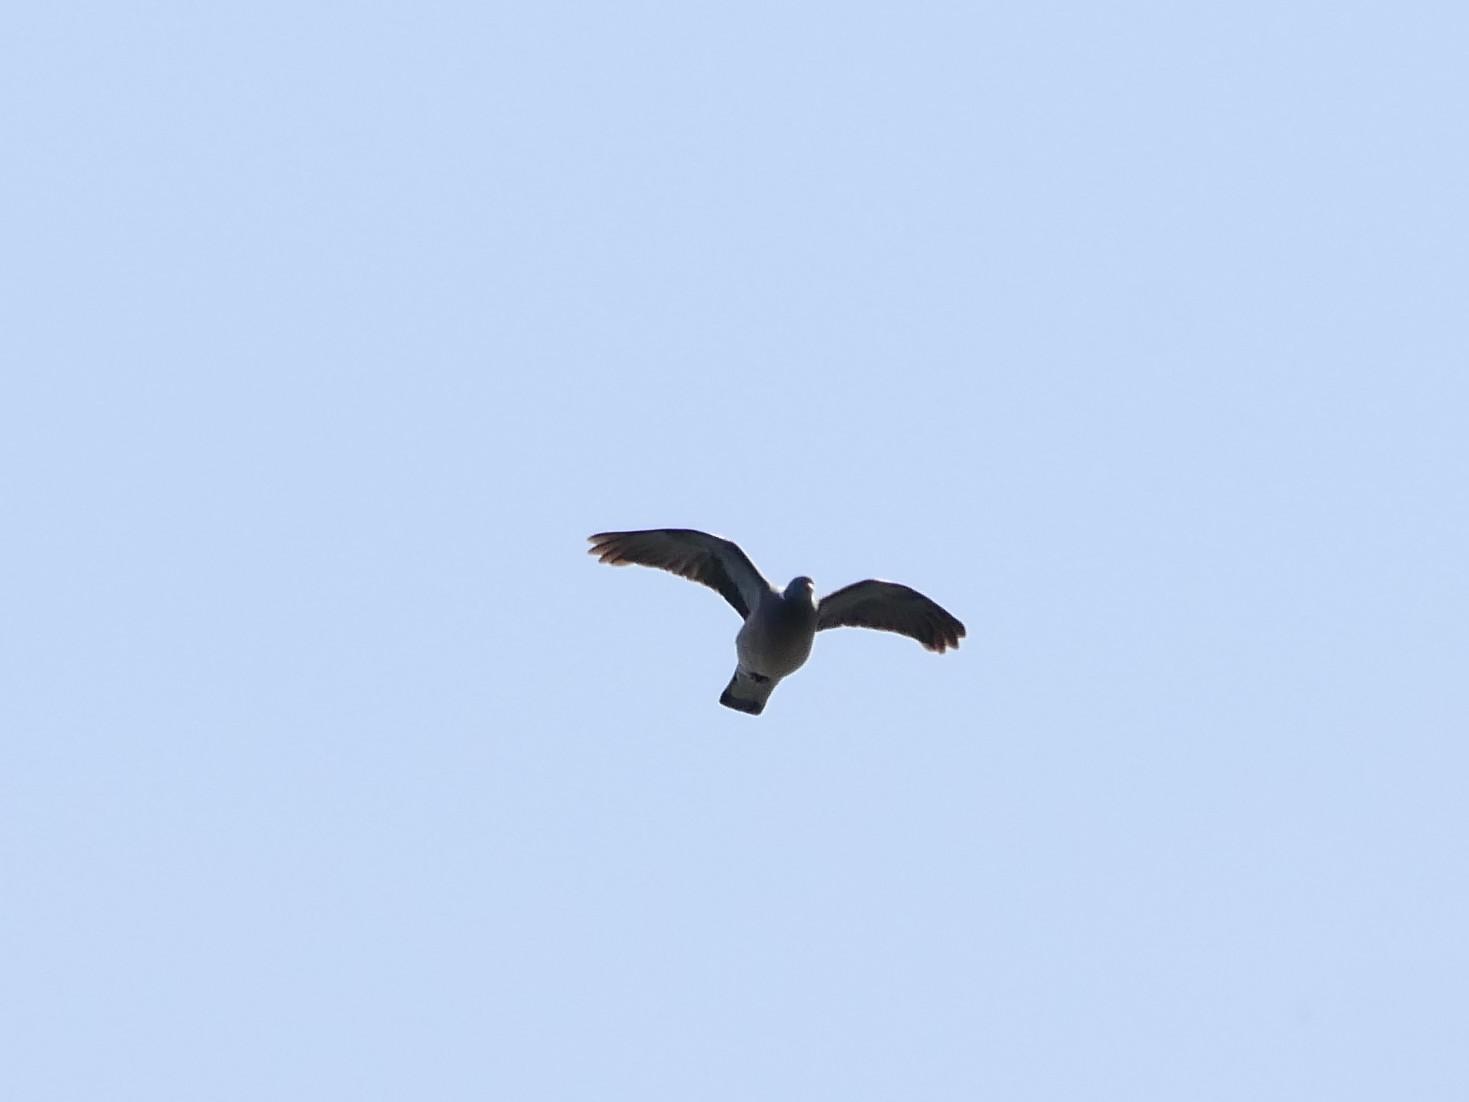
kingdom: Animalia
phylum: Chordata
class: Aves
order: Columbiformes
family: Columbidae
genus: Columba
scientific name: Columba palumbus
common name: Common wood pigeon
